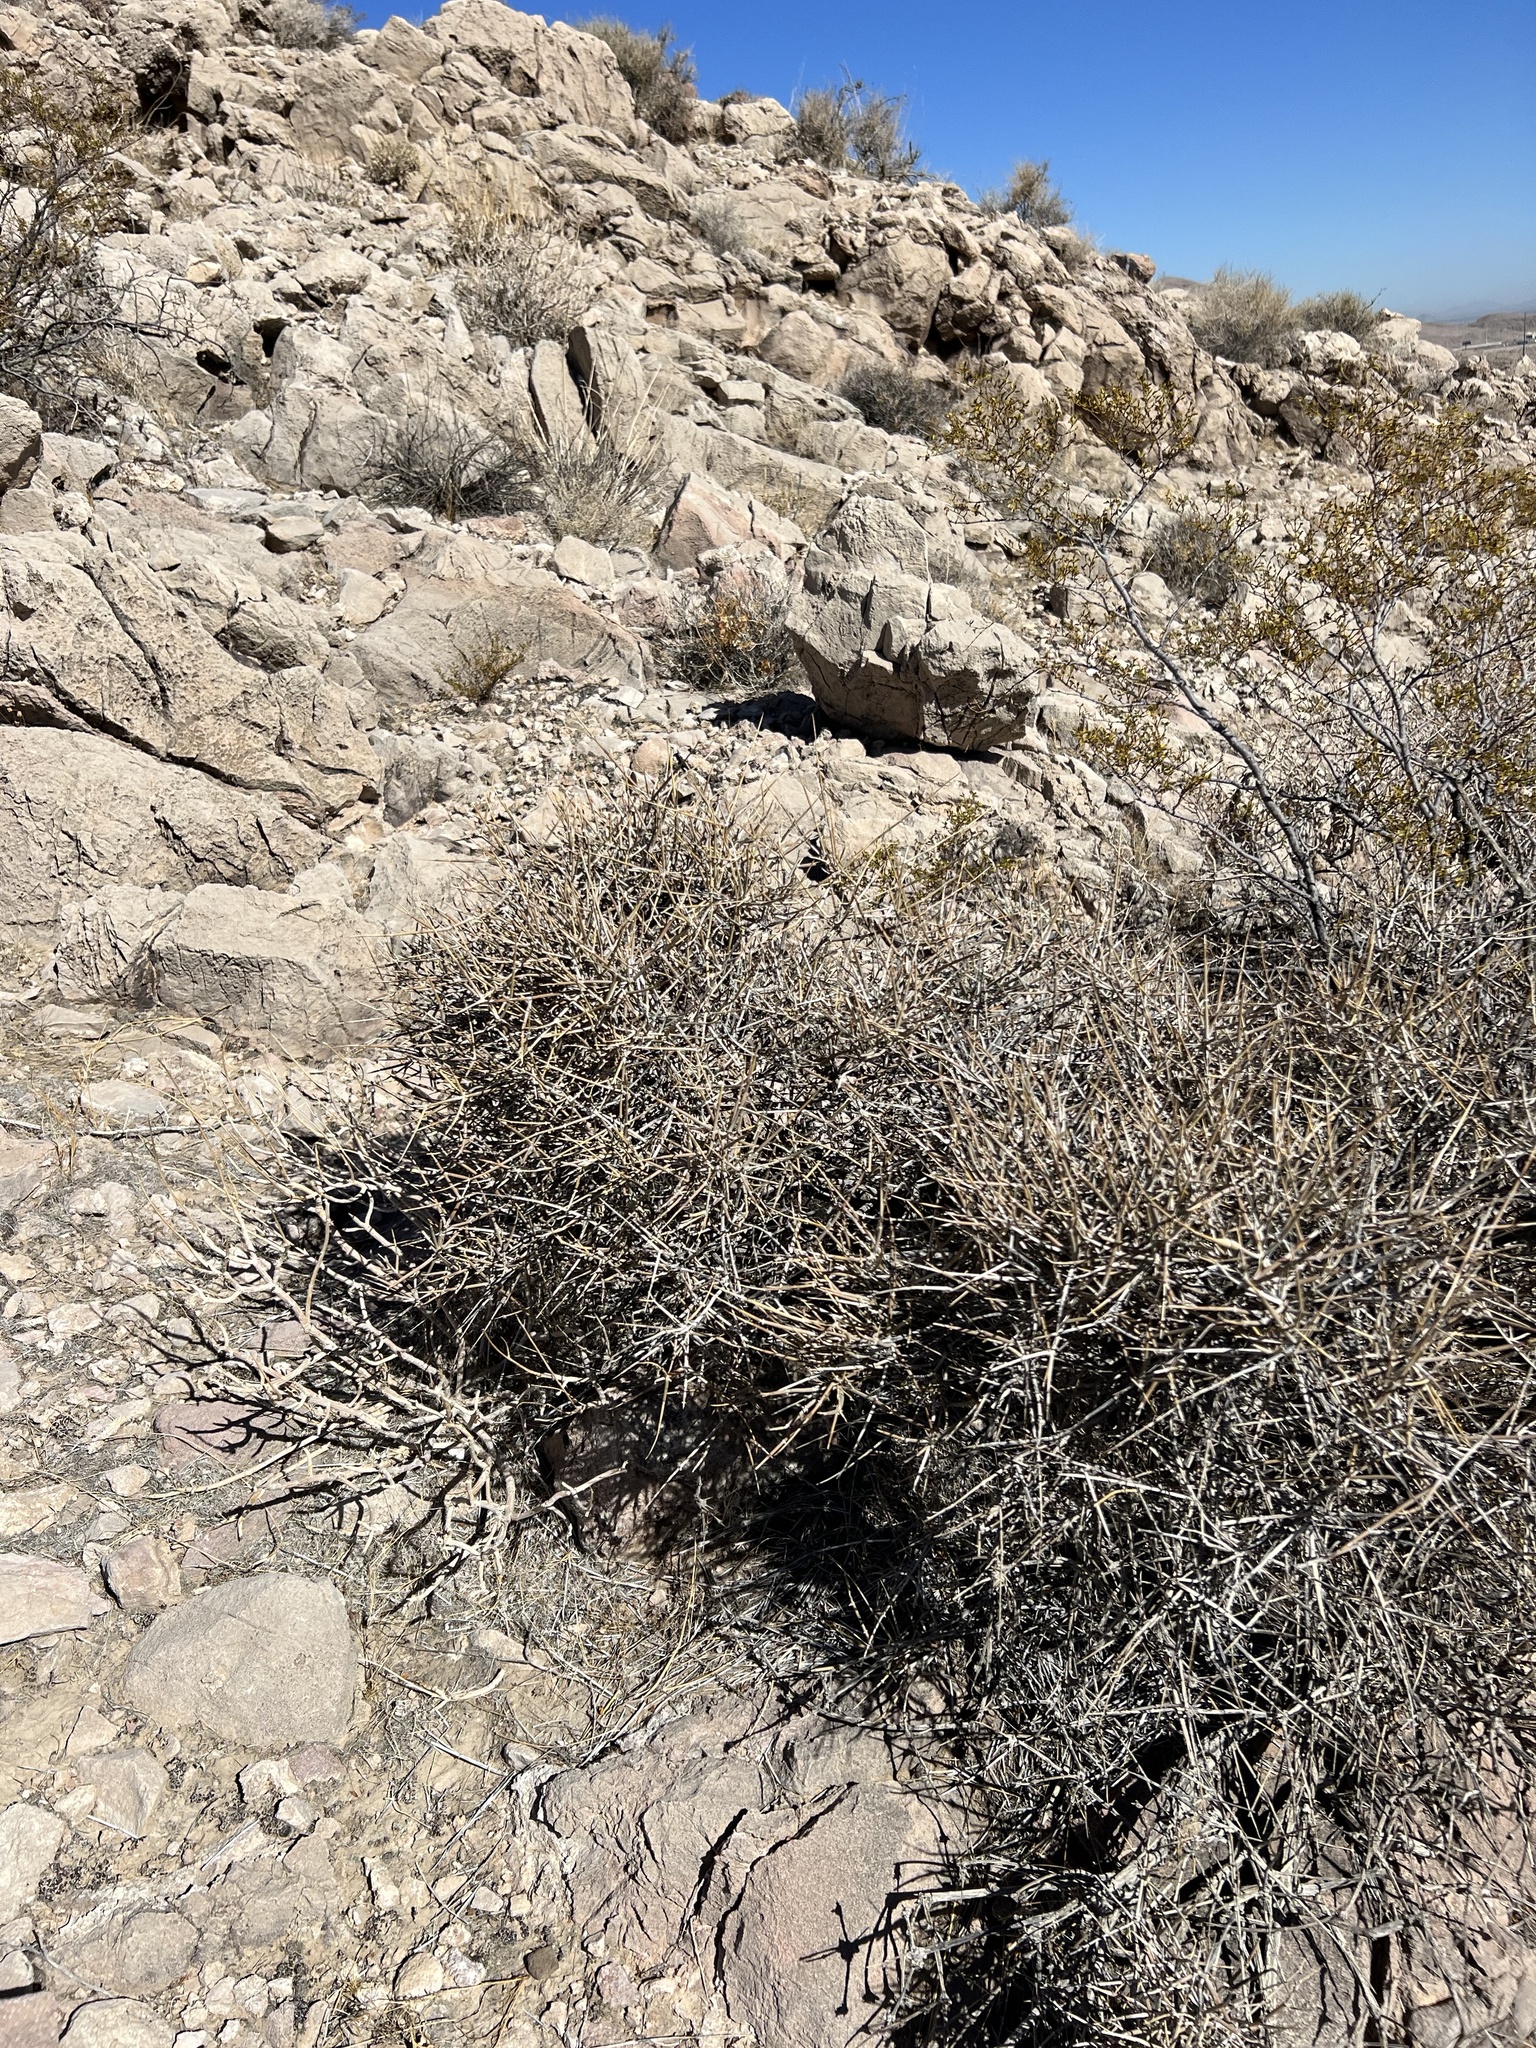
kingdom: Plantae
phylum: Tracheophyta
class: Gnetopsida
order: Ephedrales
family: Ephedraceae
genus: Ephedra
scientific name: Ephedra nevadensis
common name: Gray ephedra
